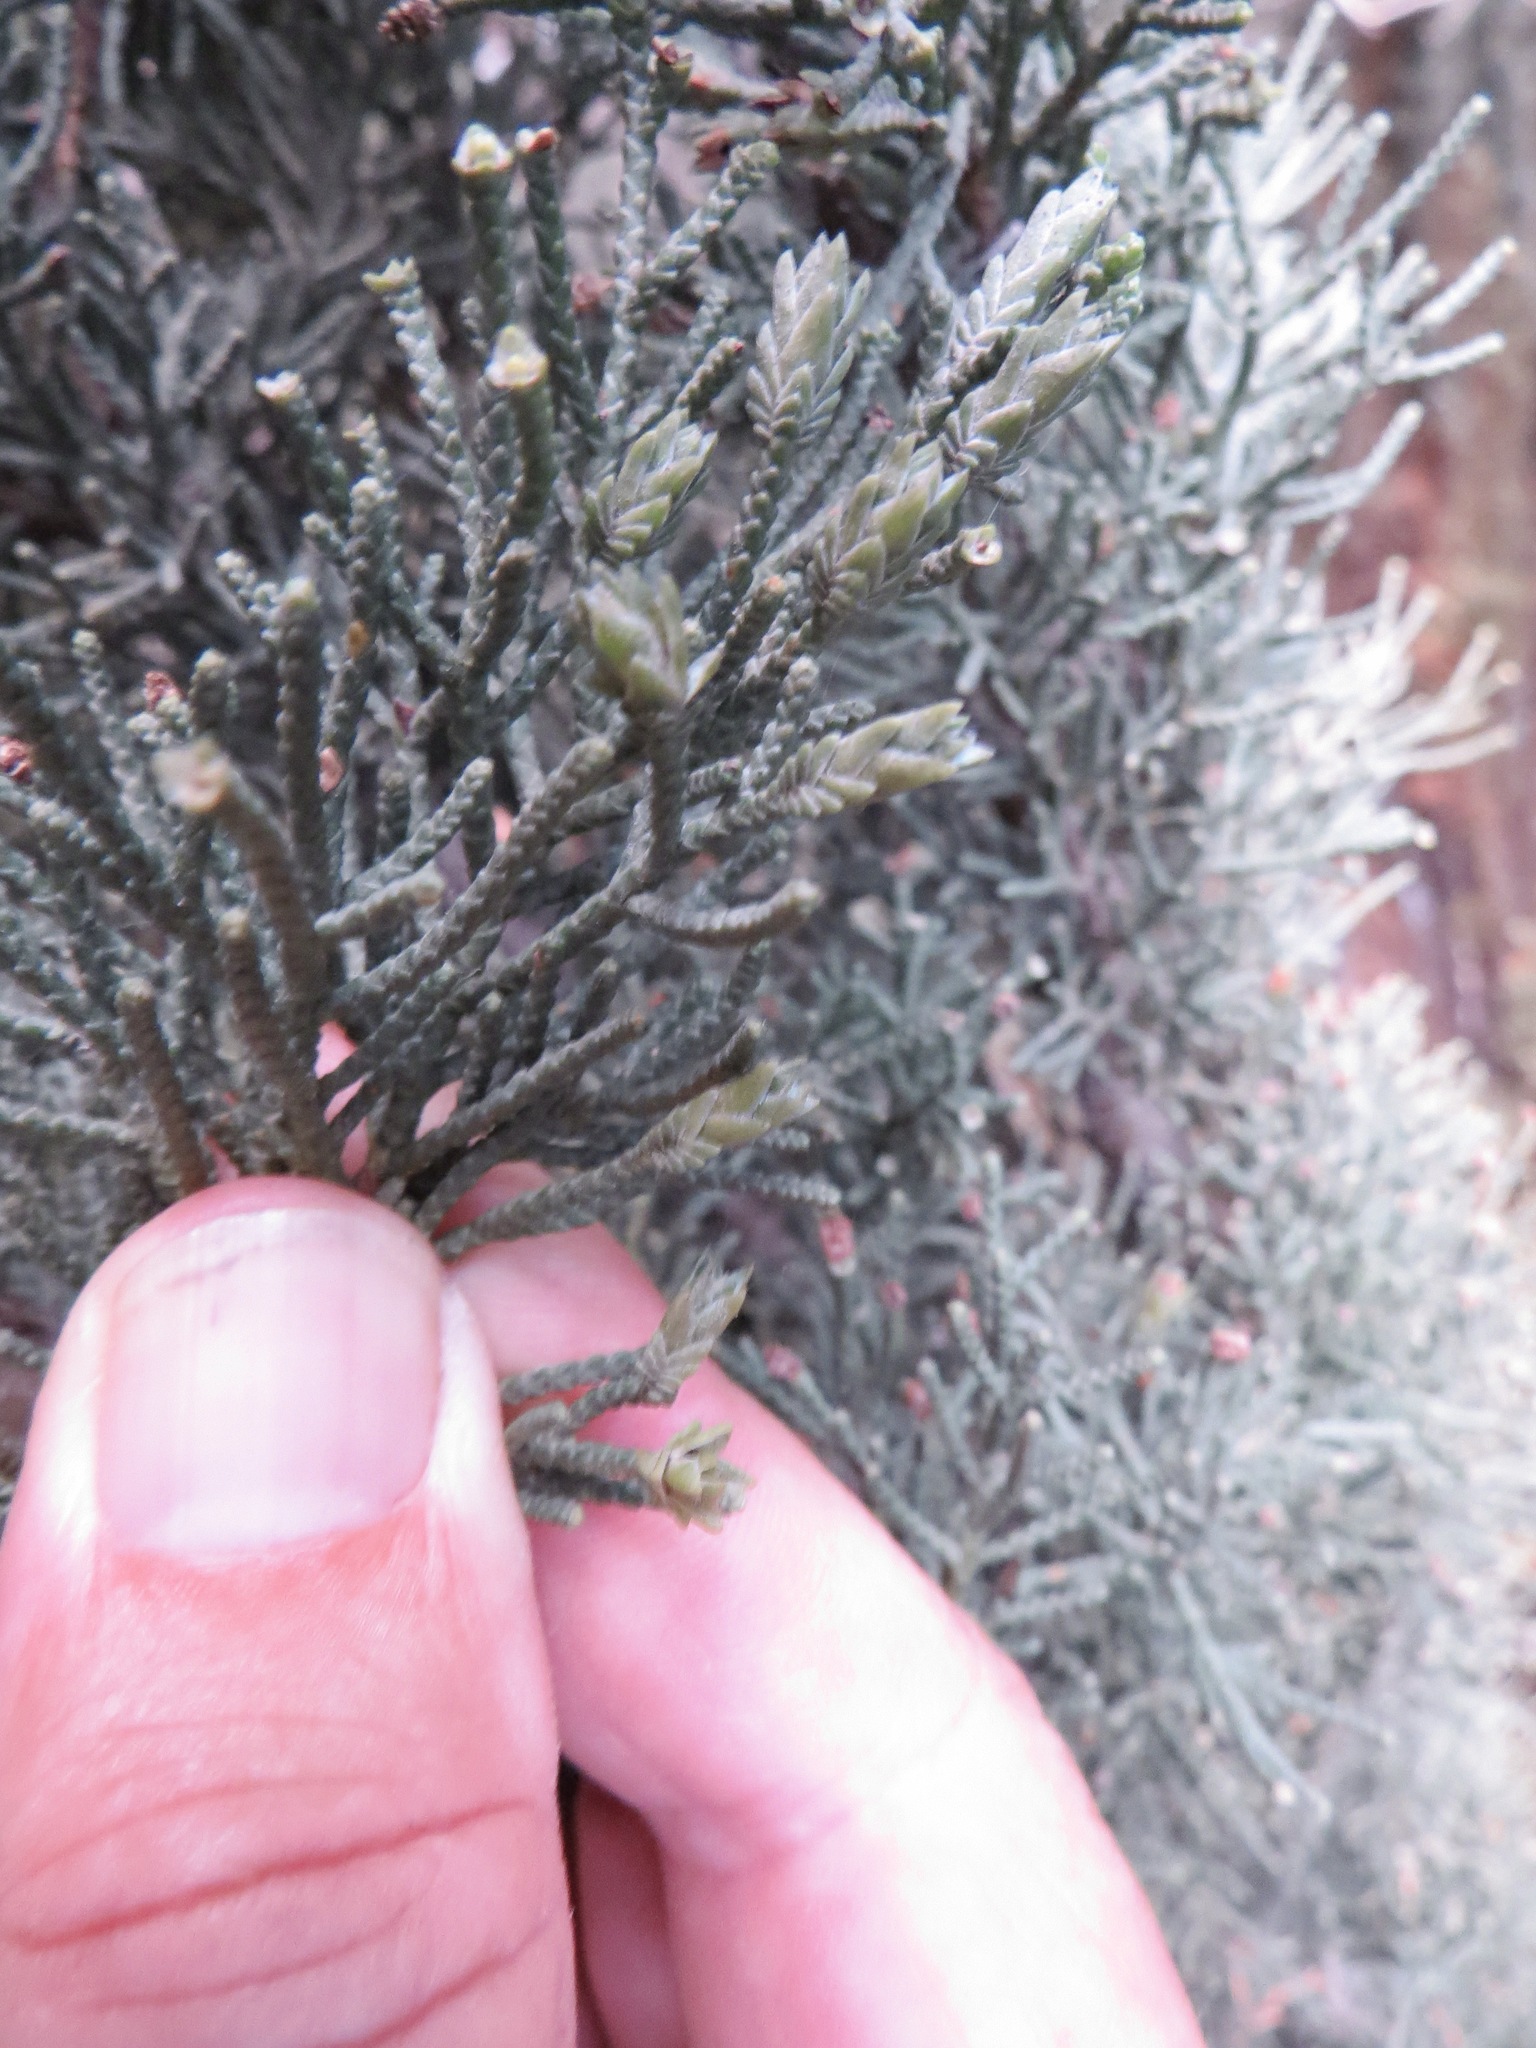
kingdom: Animalia
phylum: Arthropoda
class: Insecta
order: Diptera
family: Cecidomyiidae
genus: Oligotrophus
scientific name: Oligotrophus cupressi
